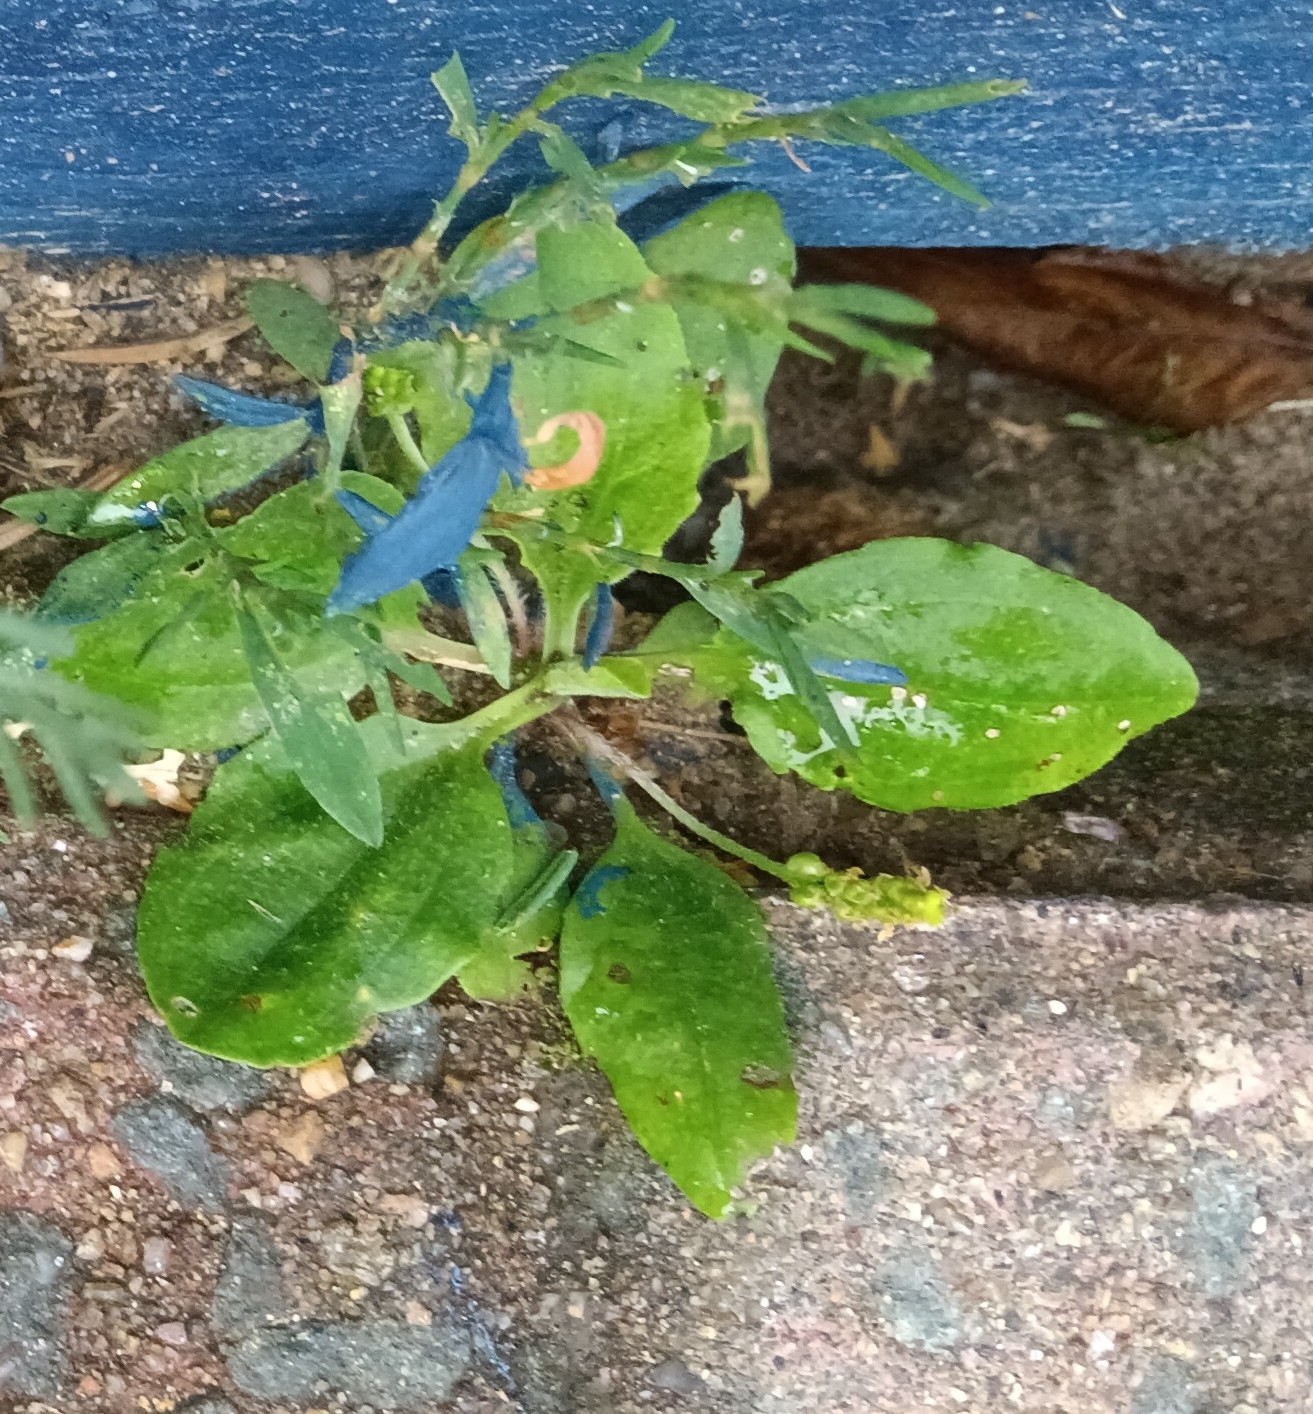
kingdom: Plantae
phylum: Tracheophyta
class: Magnoliopsida
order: Lamiales
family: Plantaginaceae
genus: Plantago
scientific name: Plantago major
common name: Common plantain
